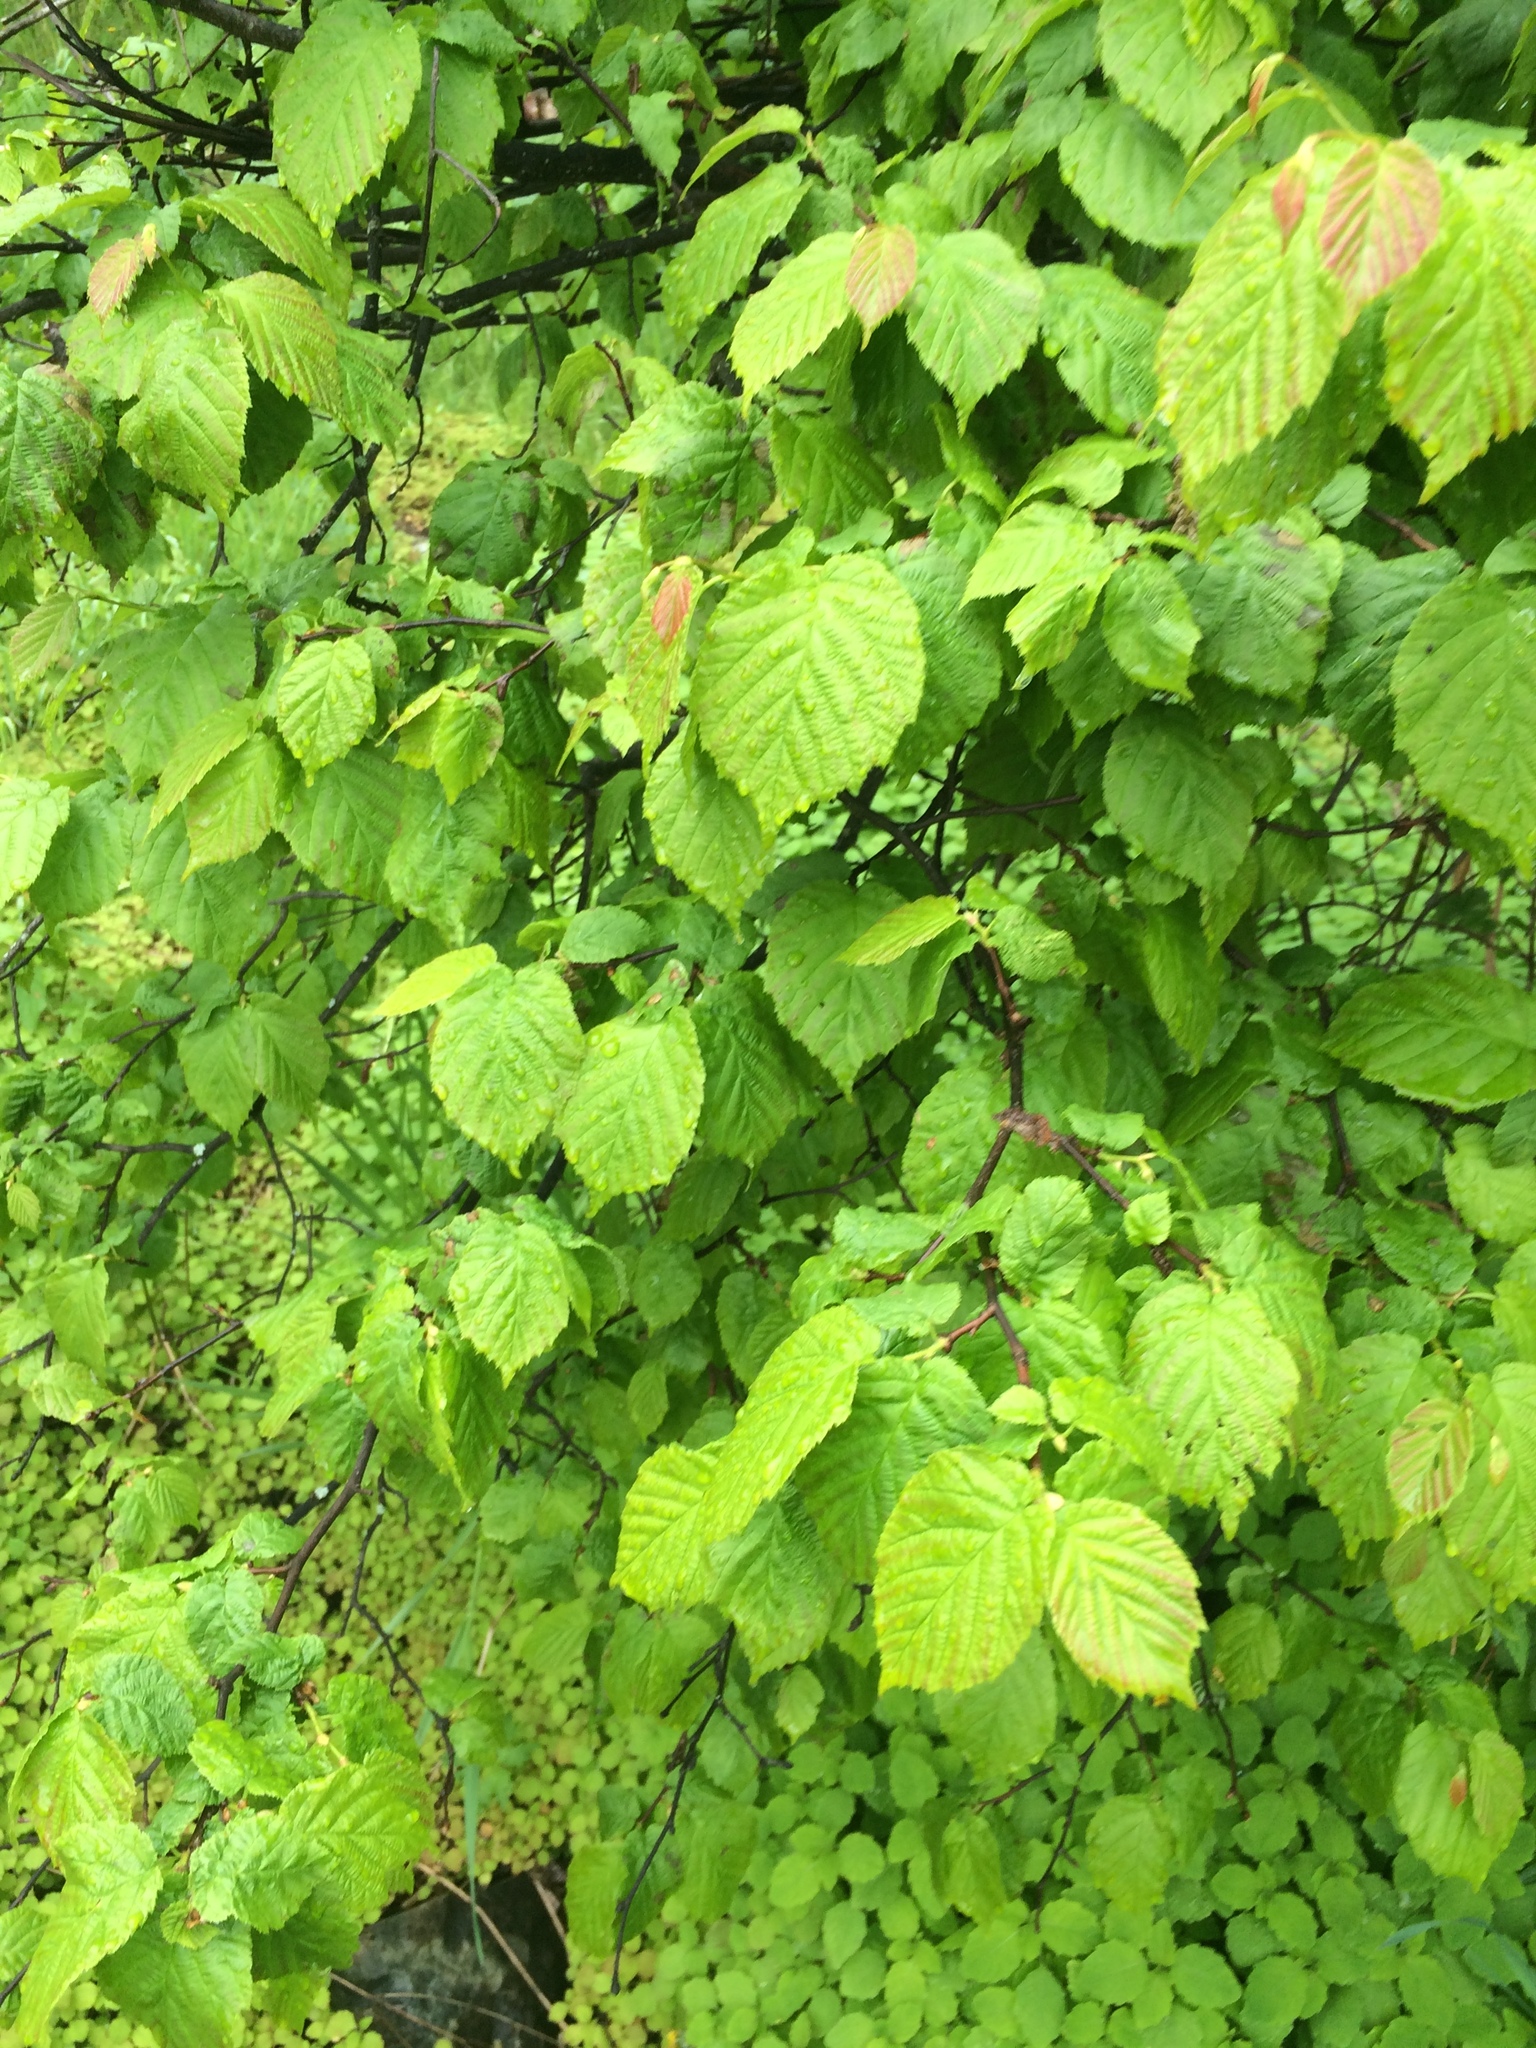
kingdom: Plantae
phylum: Tracheophyta
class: Magnoliopsida
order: Fagales
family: Betulaceae
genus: Corylus
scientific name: Corylus cornuta
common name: Beaked hazel
